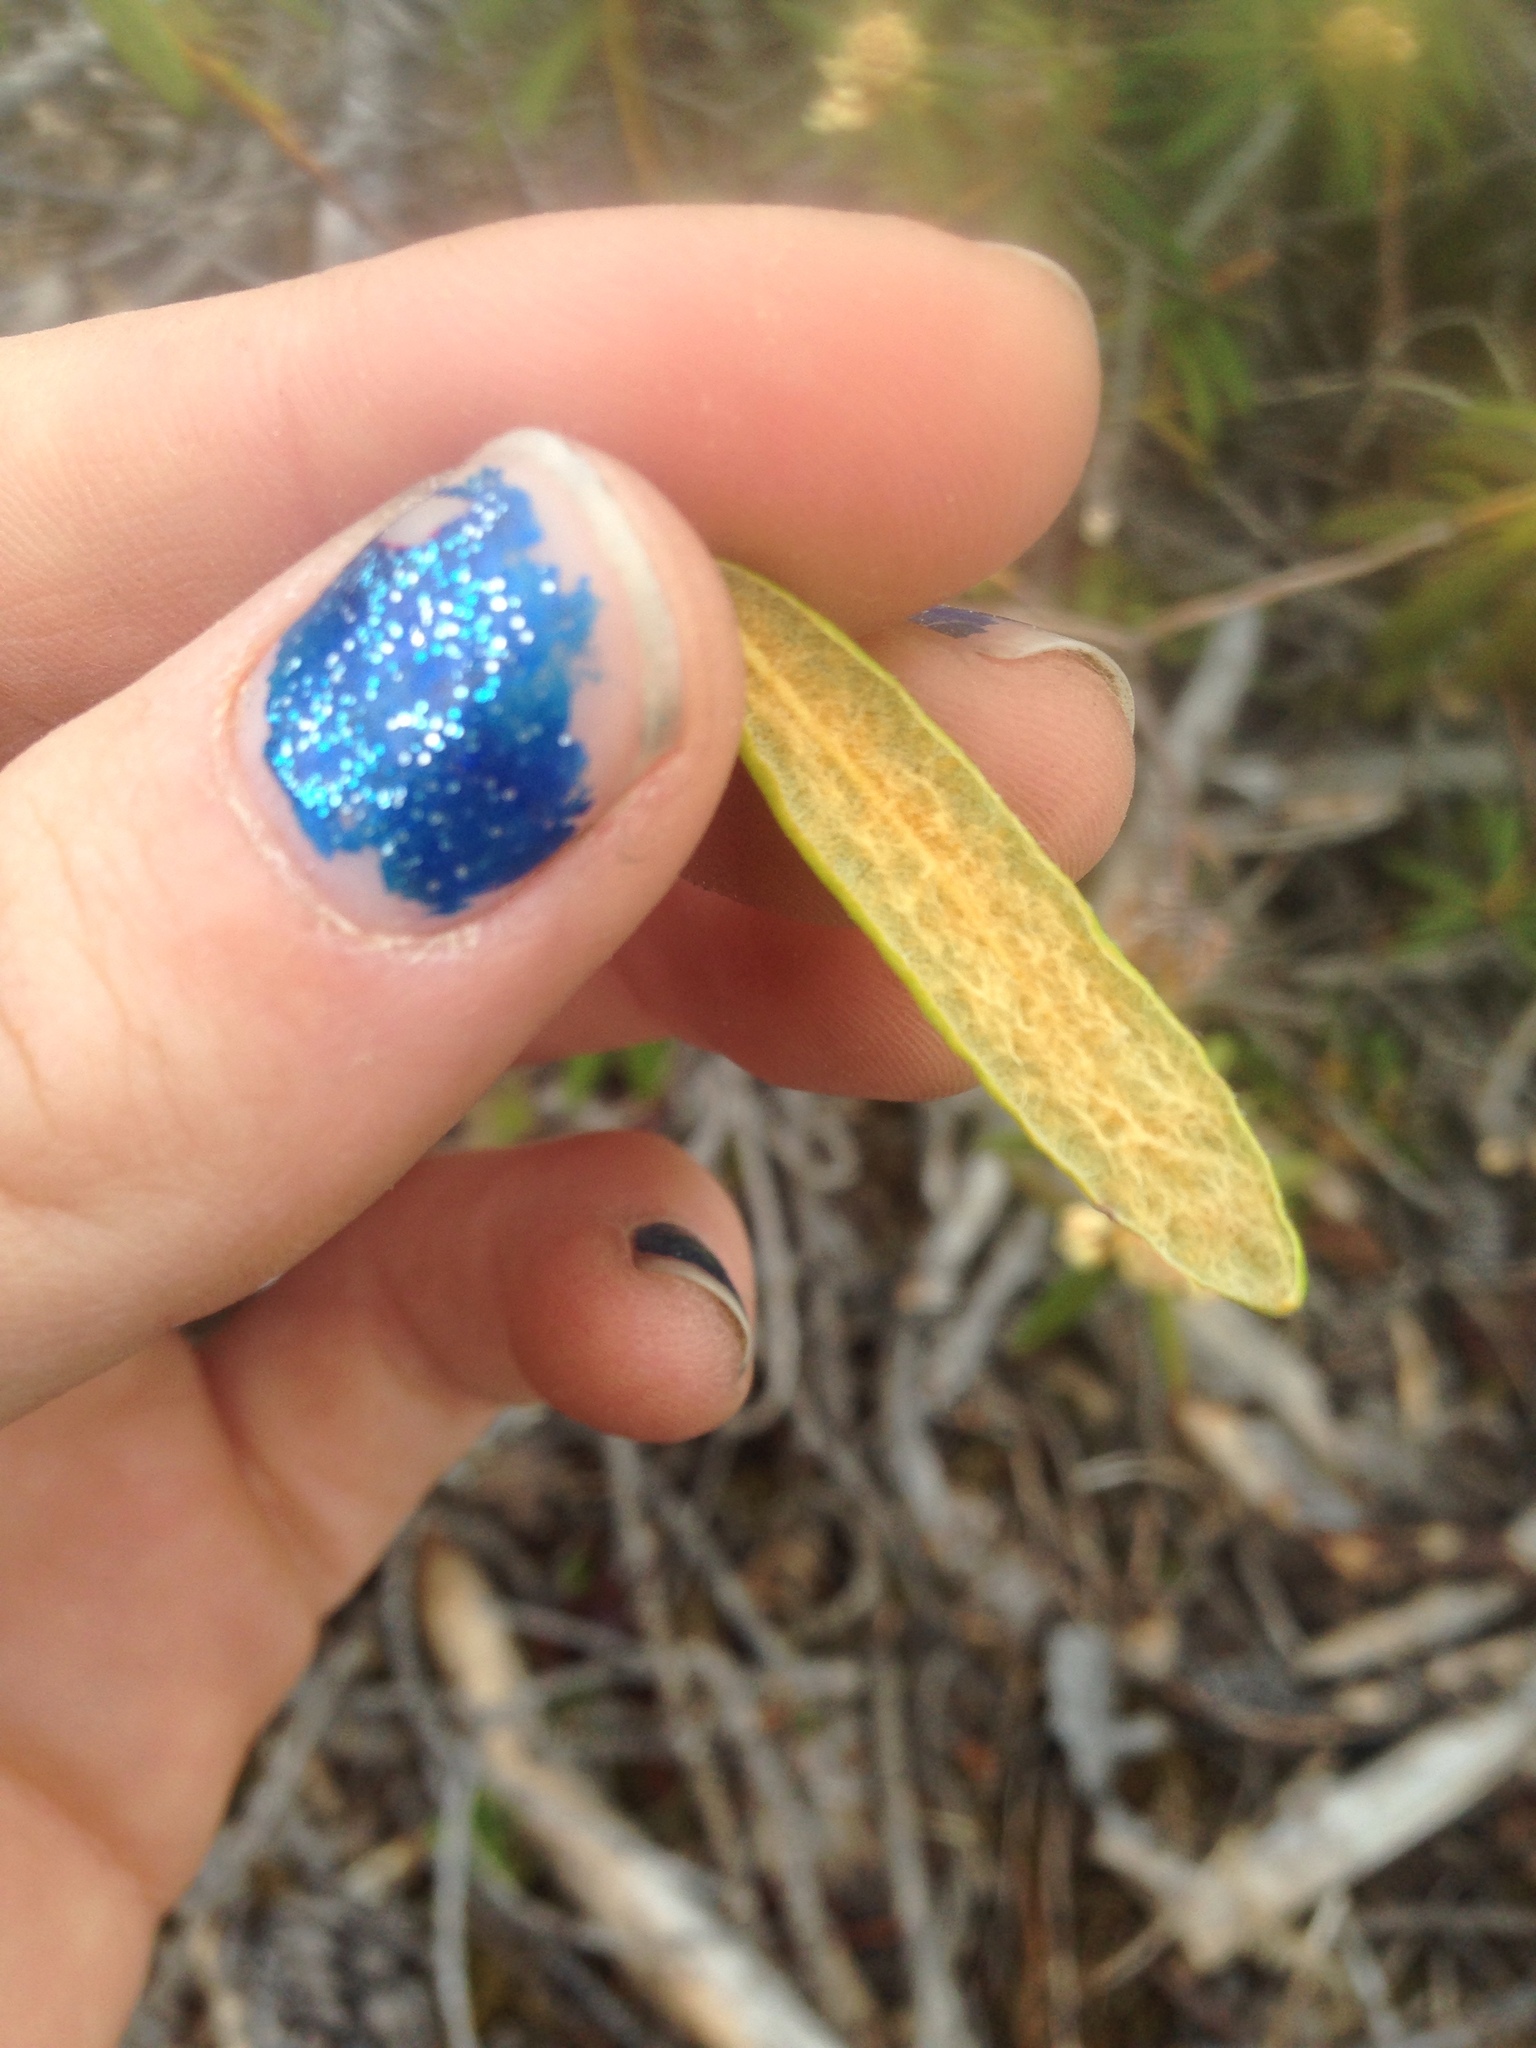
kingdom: Plantae
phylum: Tracheophyta
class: Magnoliopsida
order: Ericales
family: Ericaceae
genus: Rhododendron
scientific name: Rhododendron groenlandicum
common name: Bog labrador tea
